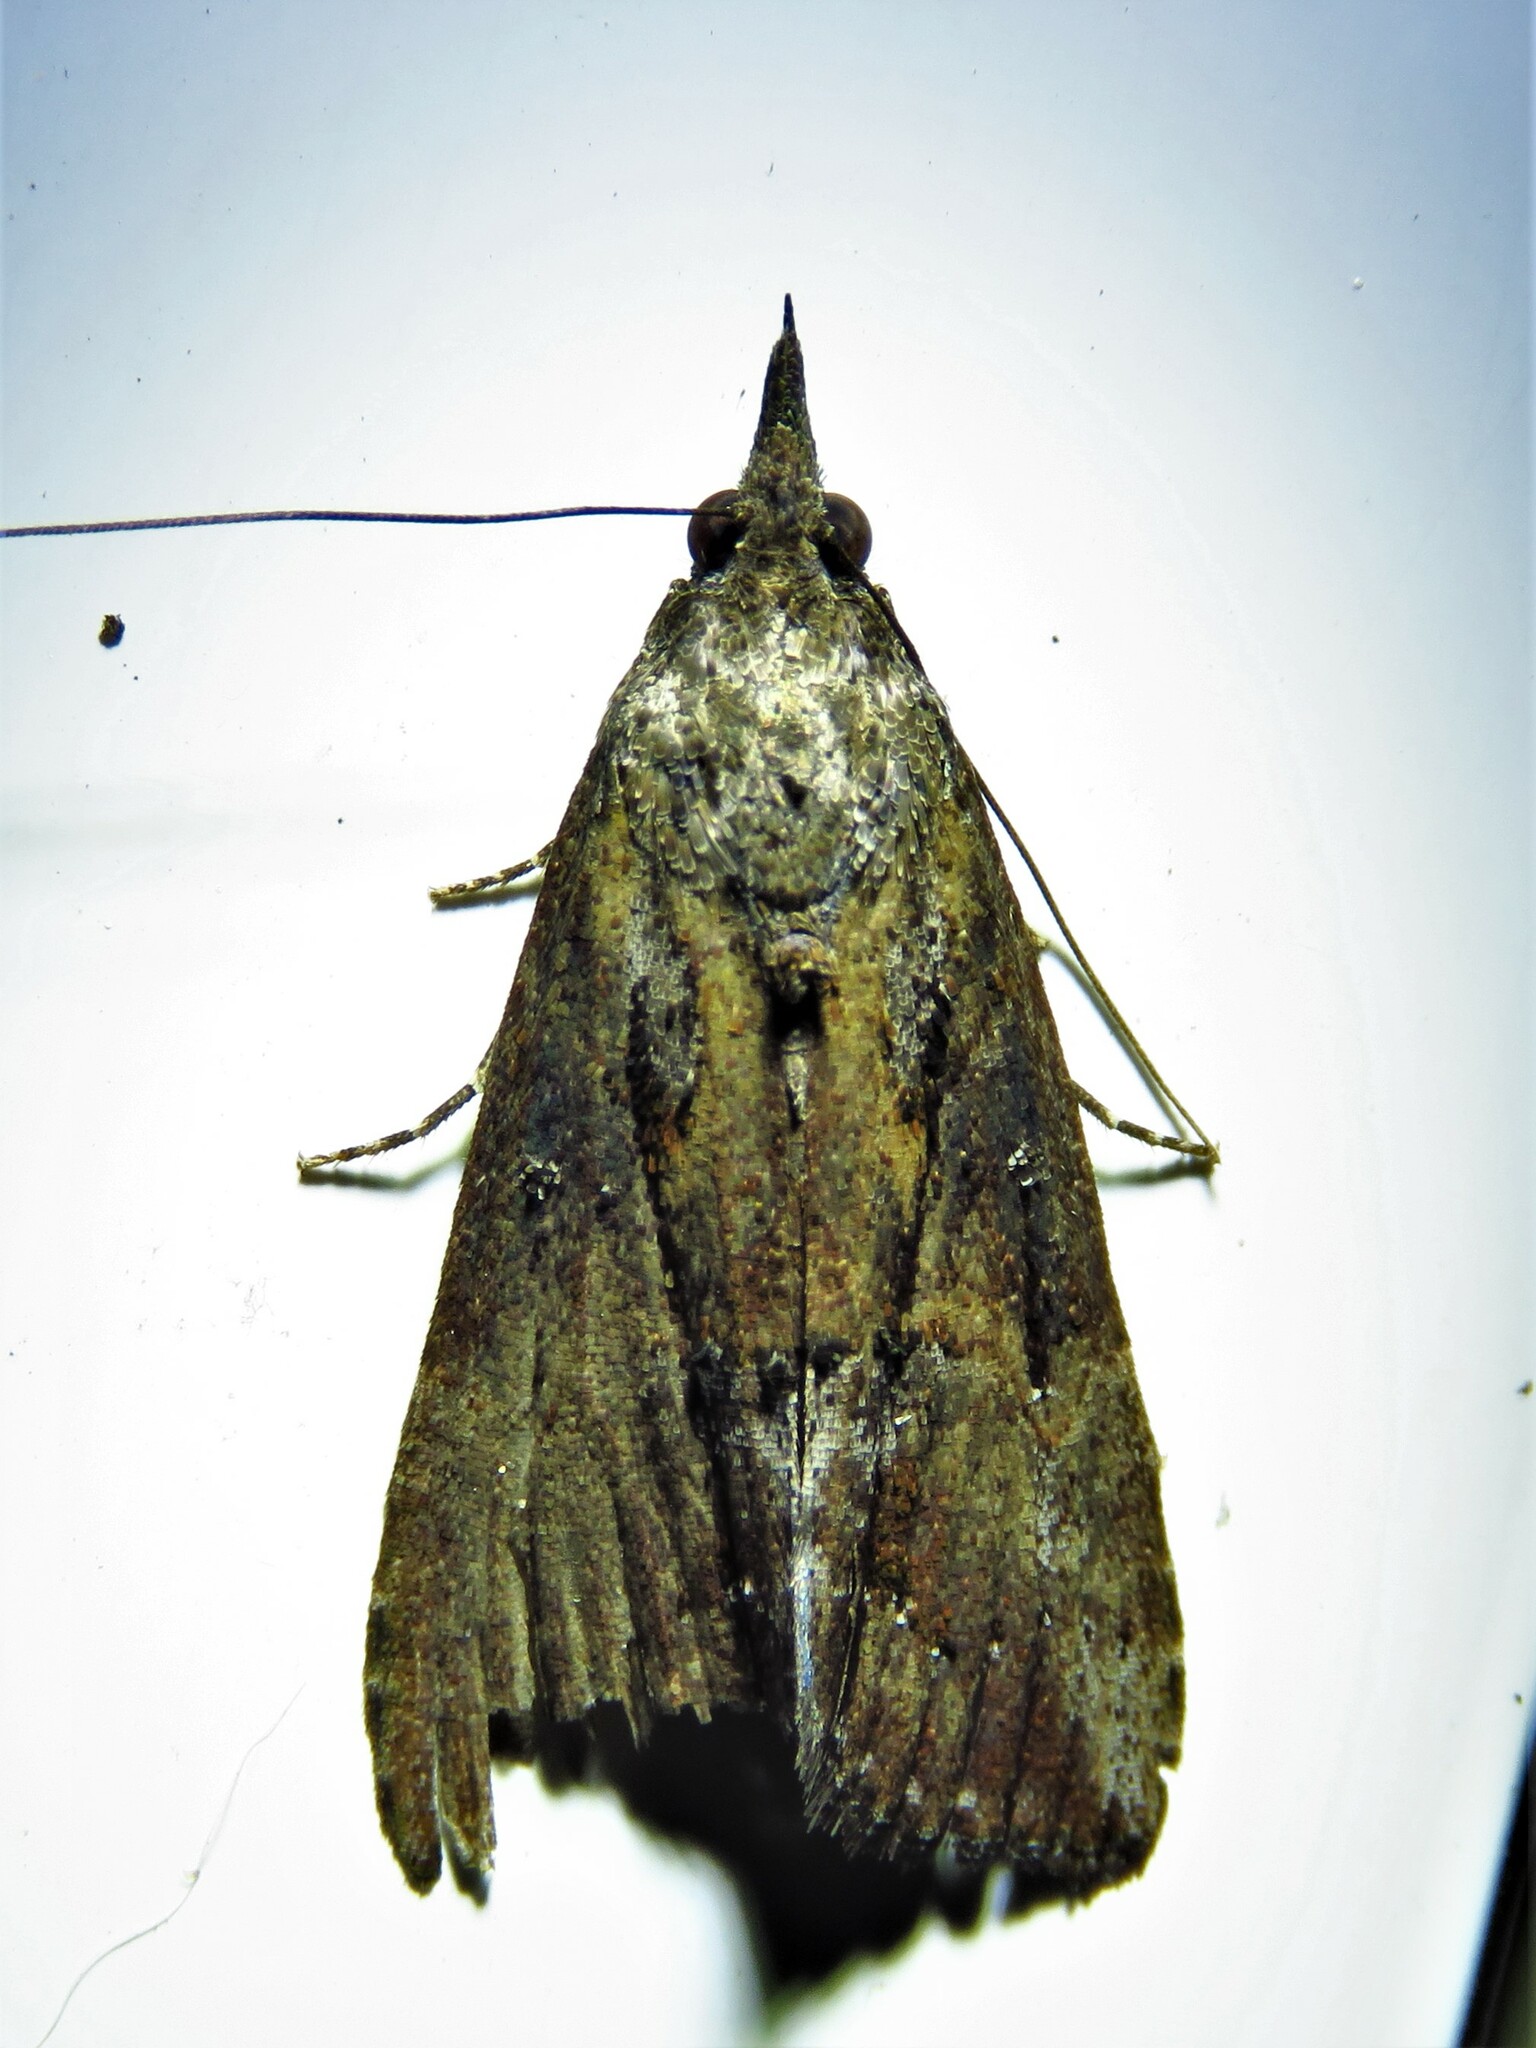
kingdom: Animalia
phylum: Arthropoda
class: Insecta
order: Lepidoptera
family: Erebidae
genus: Hypena
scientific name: Hypena scabra
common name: Green cloverworm
